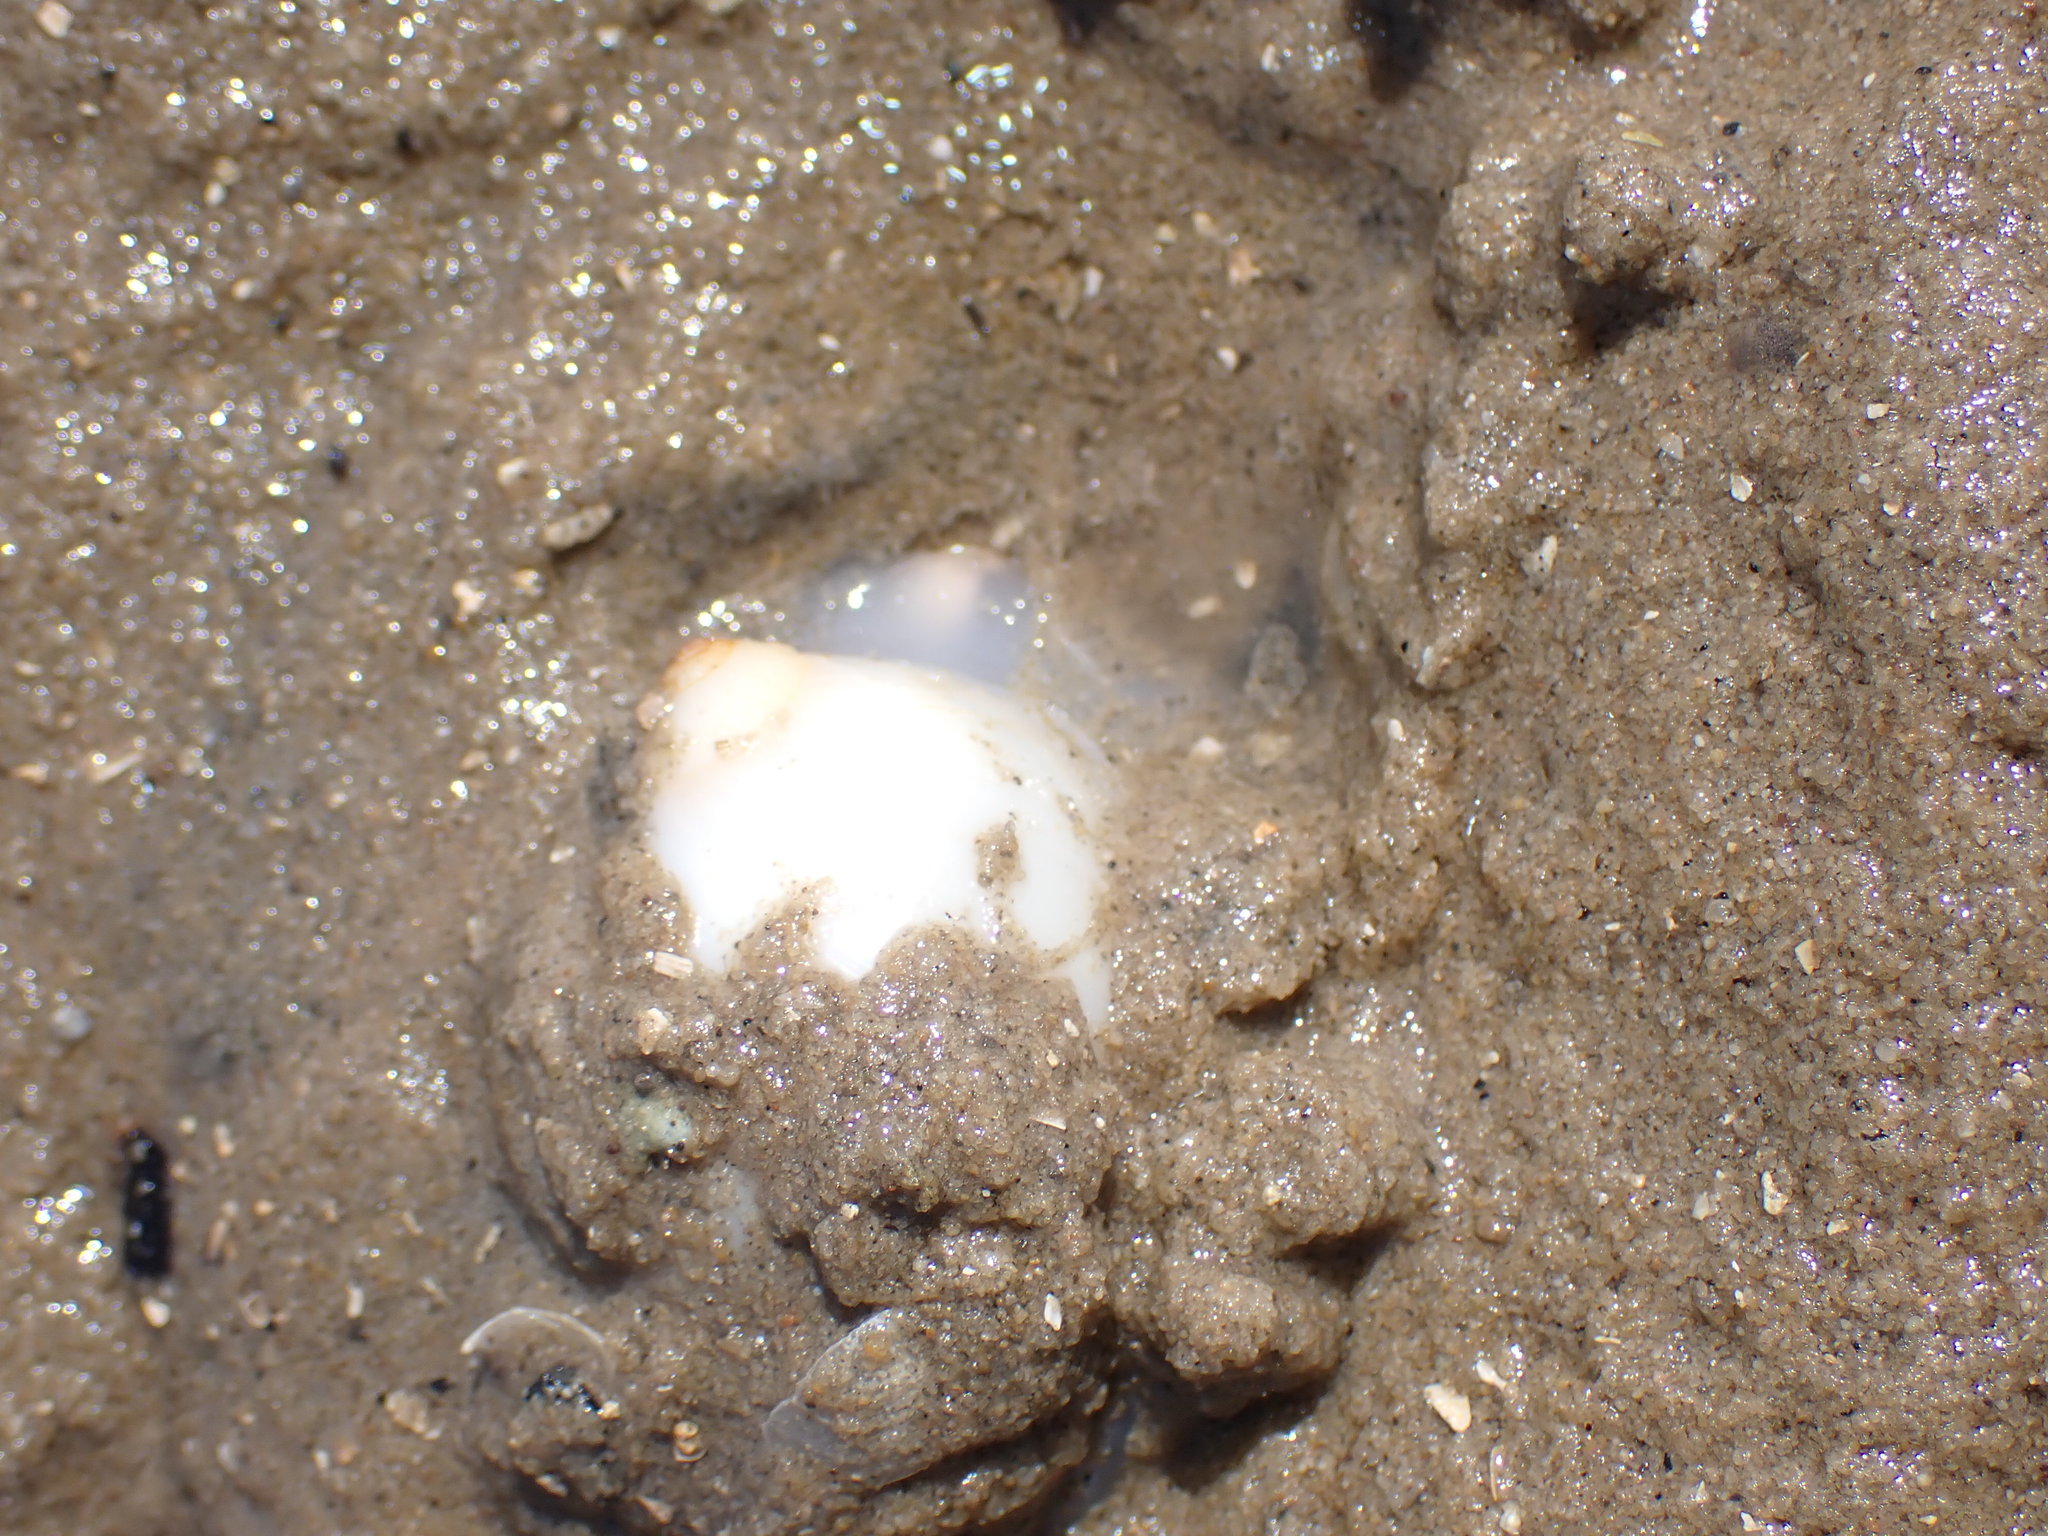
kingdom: Animalia
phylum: Mollusca
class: Gastropoda
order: Littorinimorpha
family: Naticidae
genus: Polinices
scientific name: Polinices mammilla
